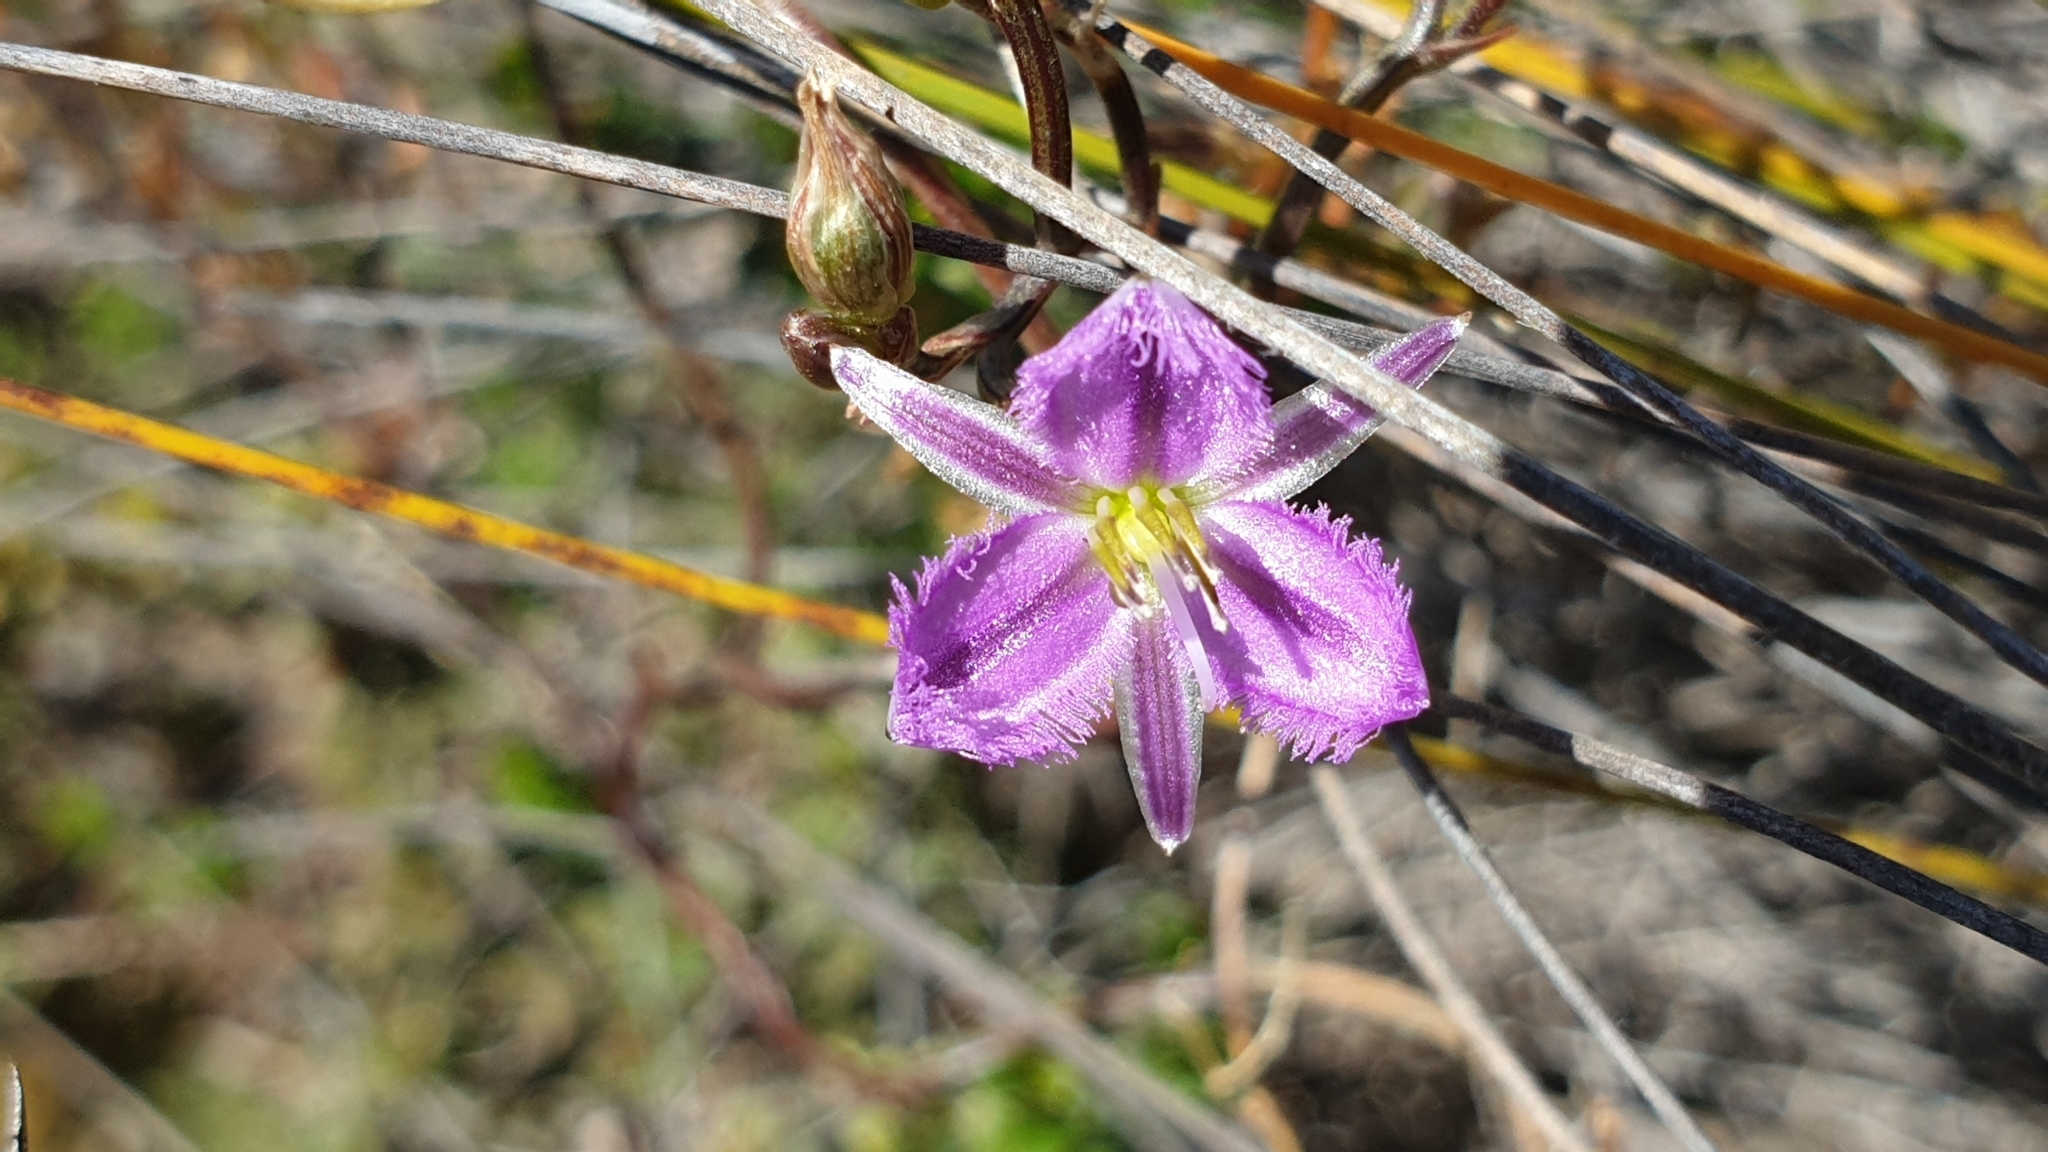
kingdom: Plantae
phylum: Tracheophyta
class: Liliopsida
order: Asparagales
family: Asparagaceae
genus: Thysanotus
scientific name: Thysanotus patersonii
